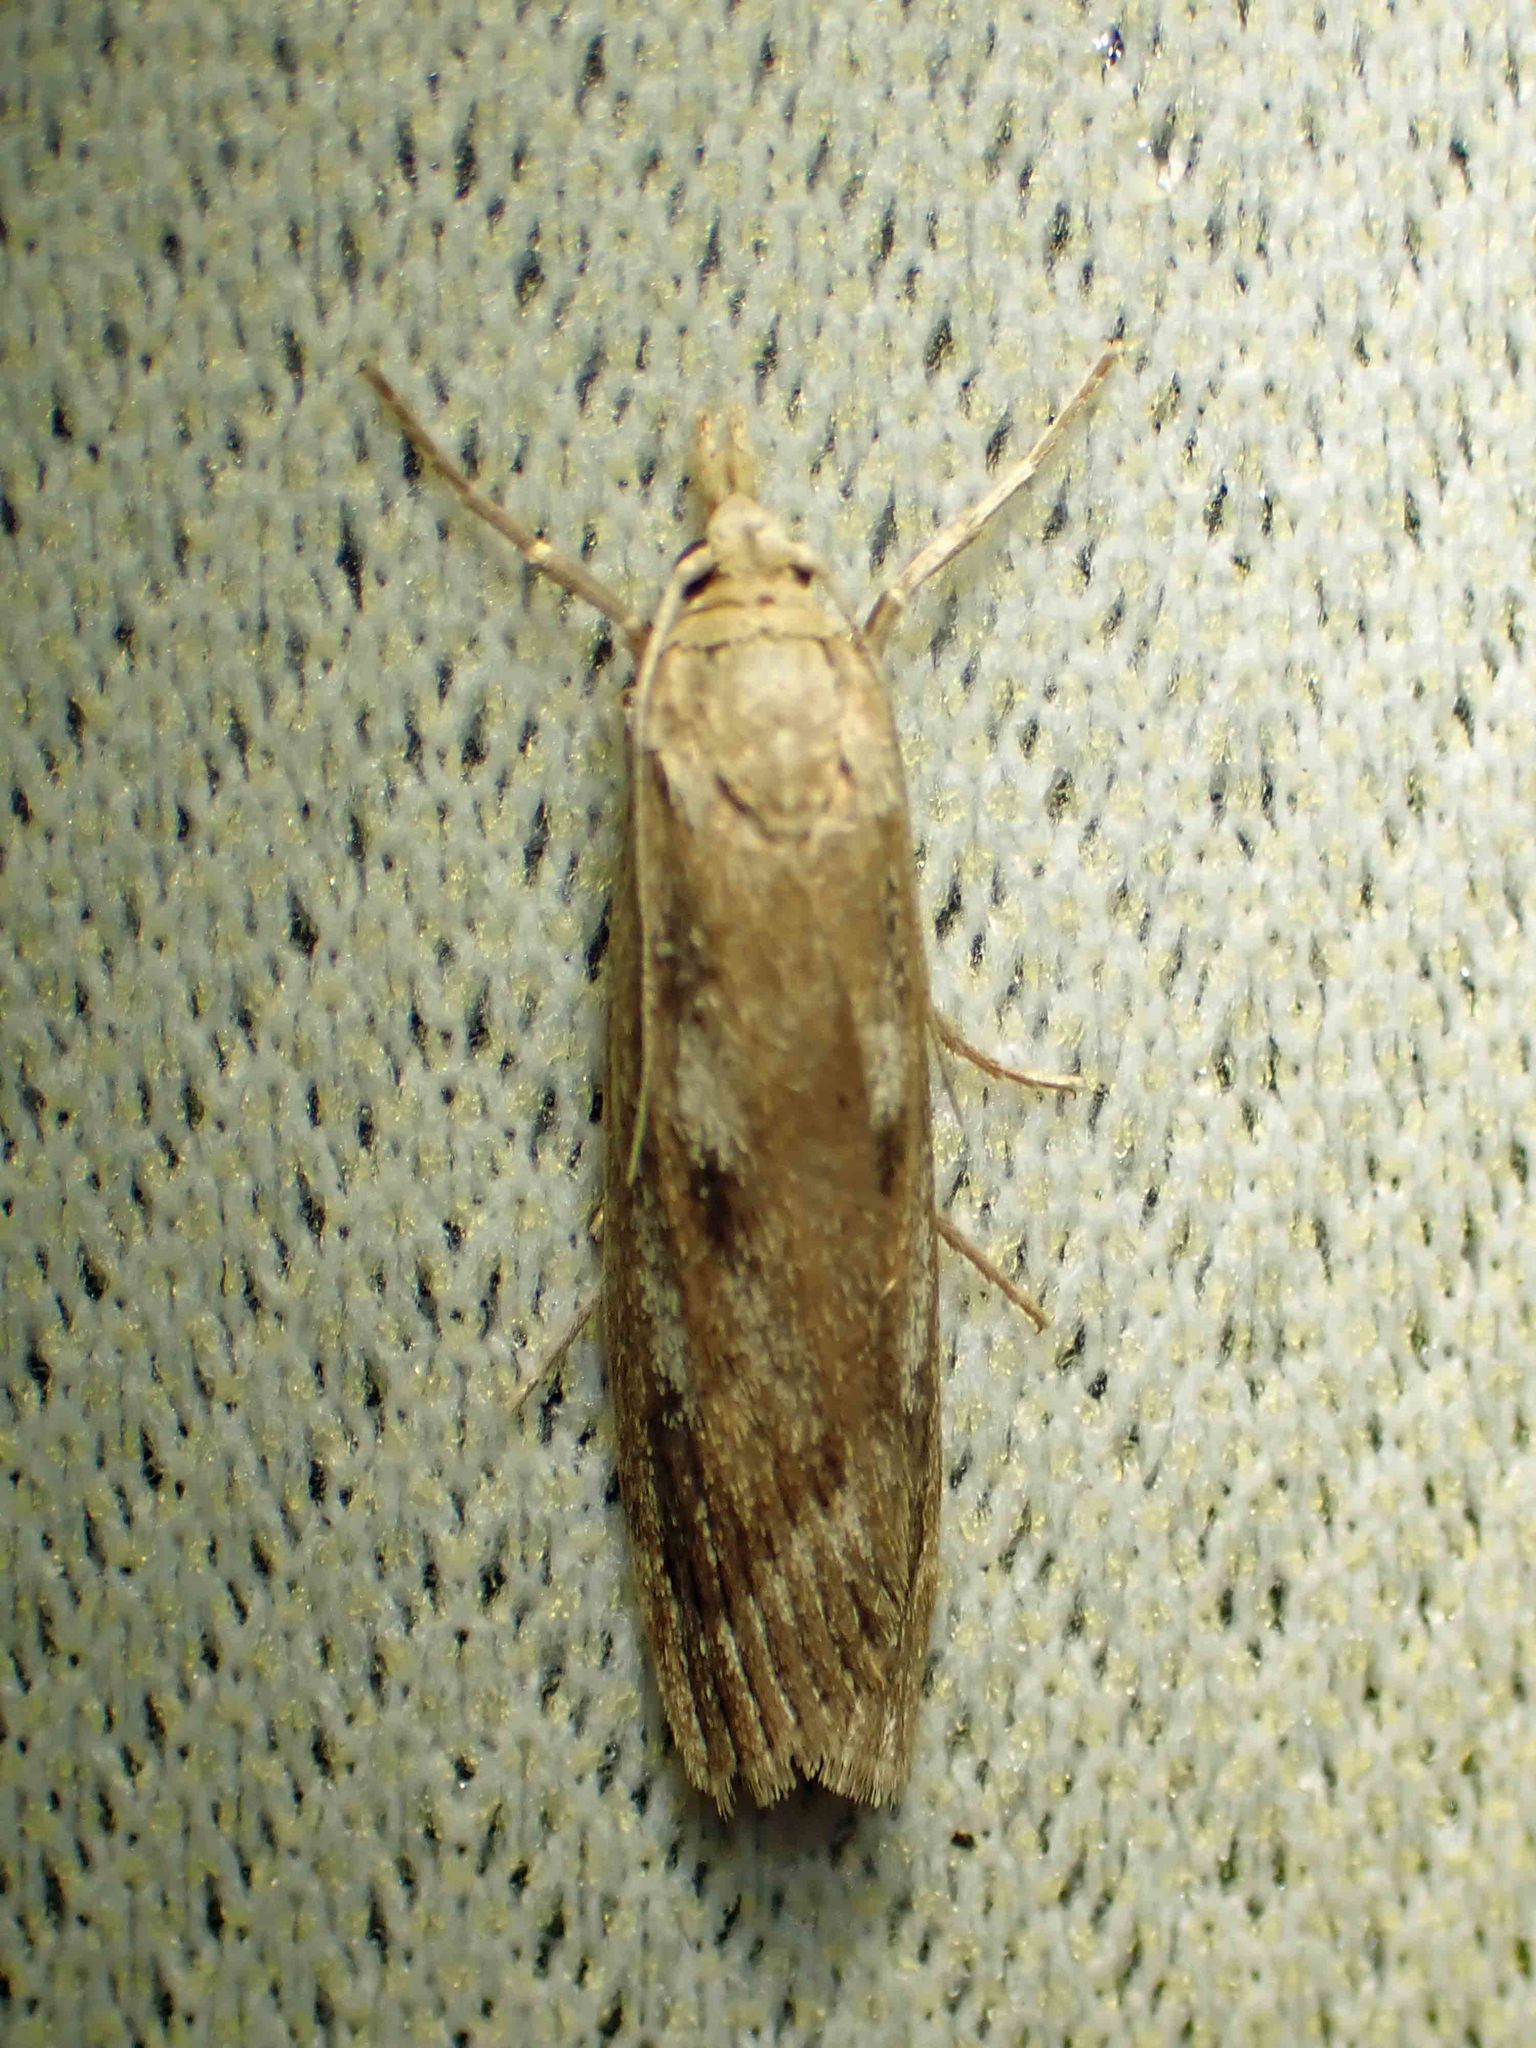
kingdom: Animalia
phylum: Arthropoda
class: Insecta
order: Lepidoptera
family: Crambidae
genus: Occidentalia
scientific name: Occidentalia comptulatalis
